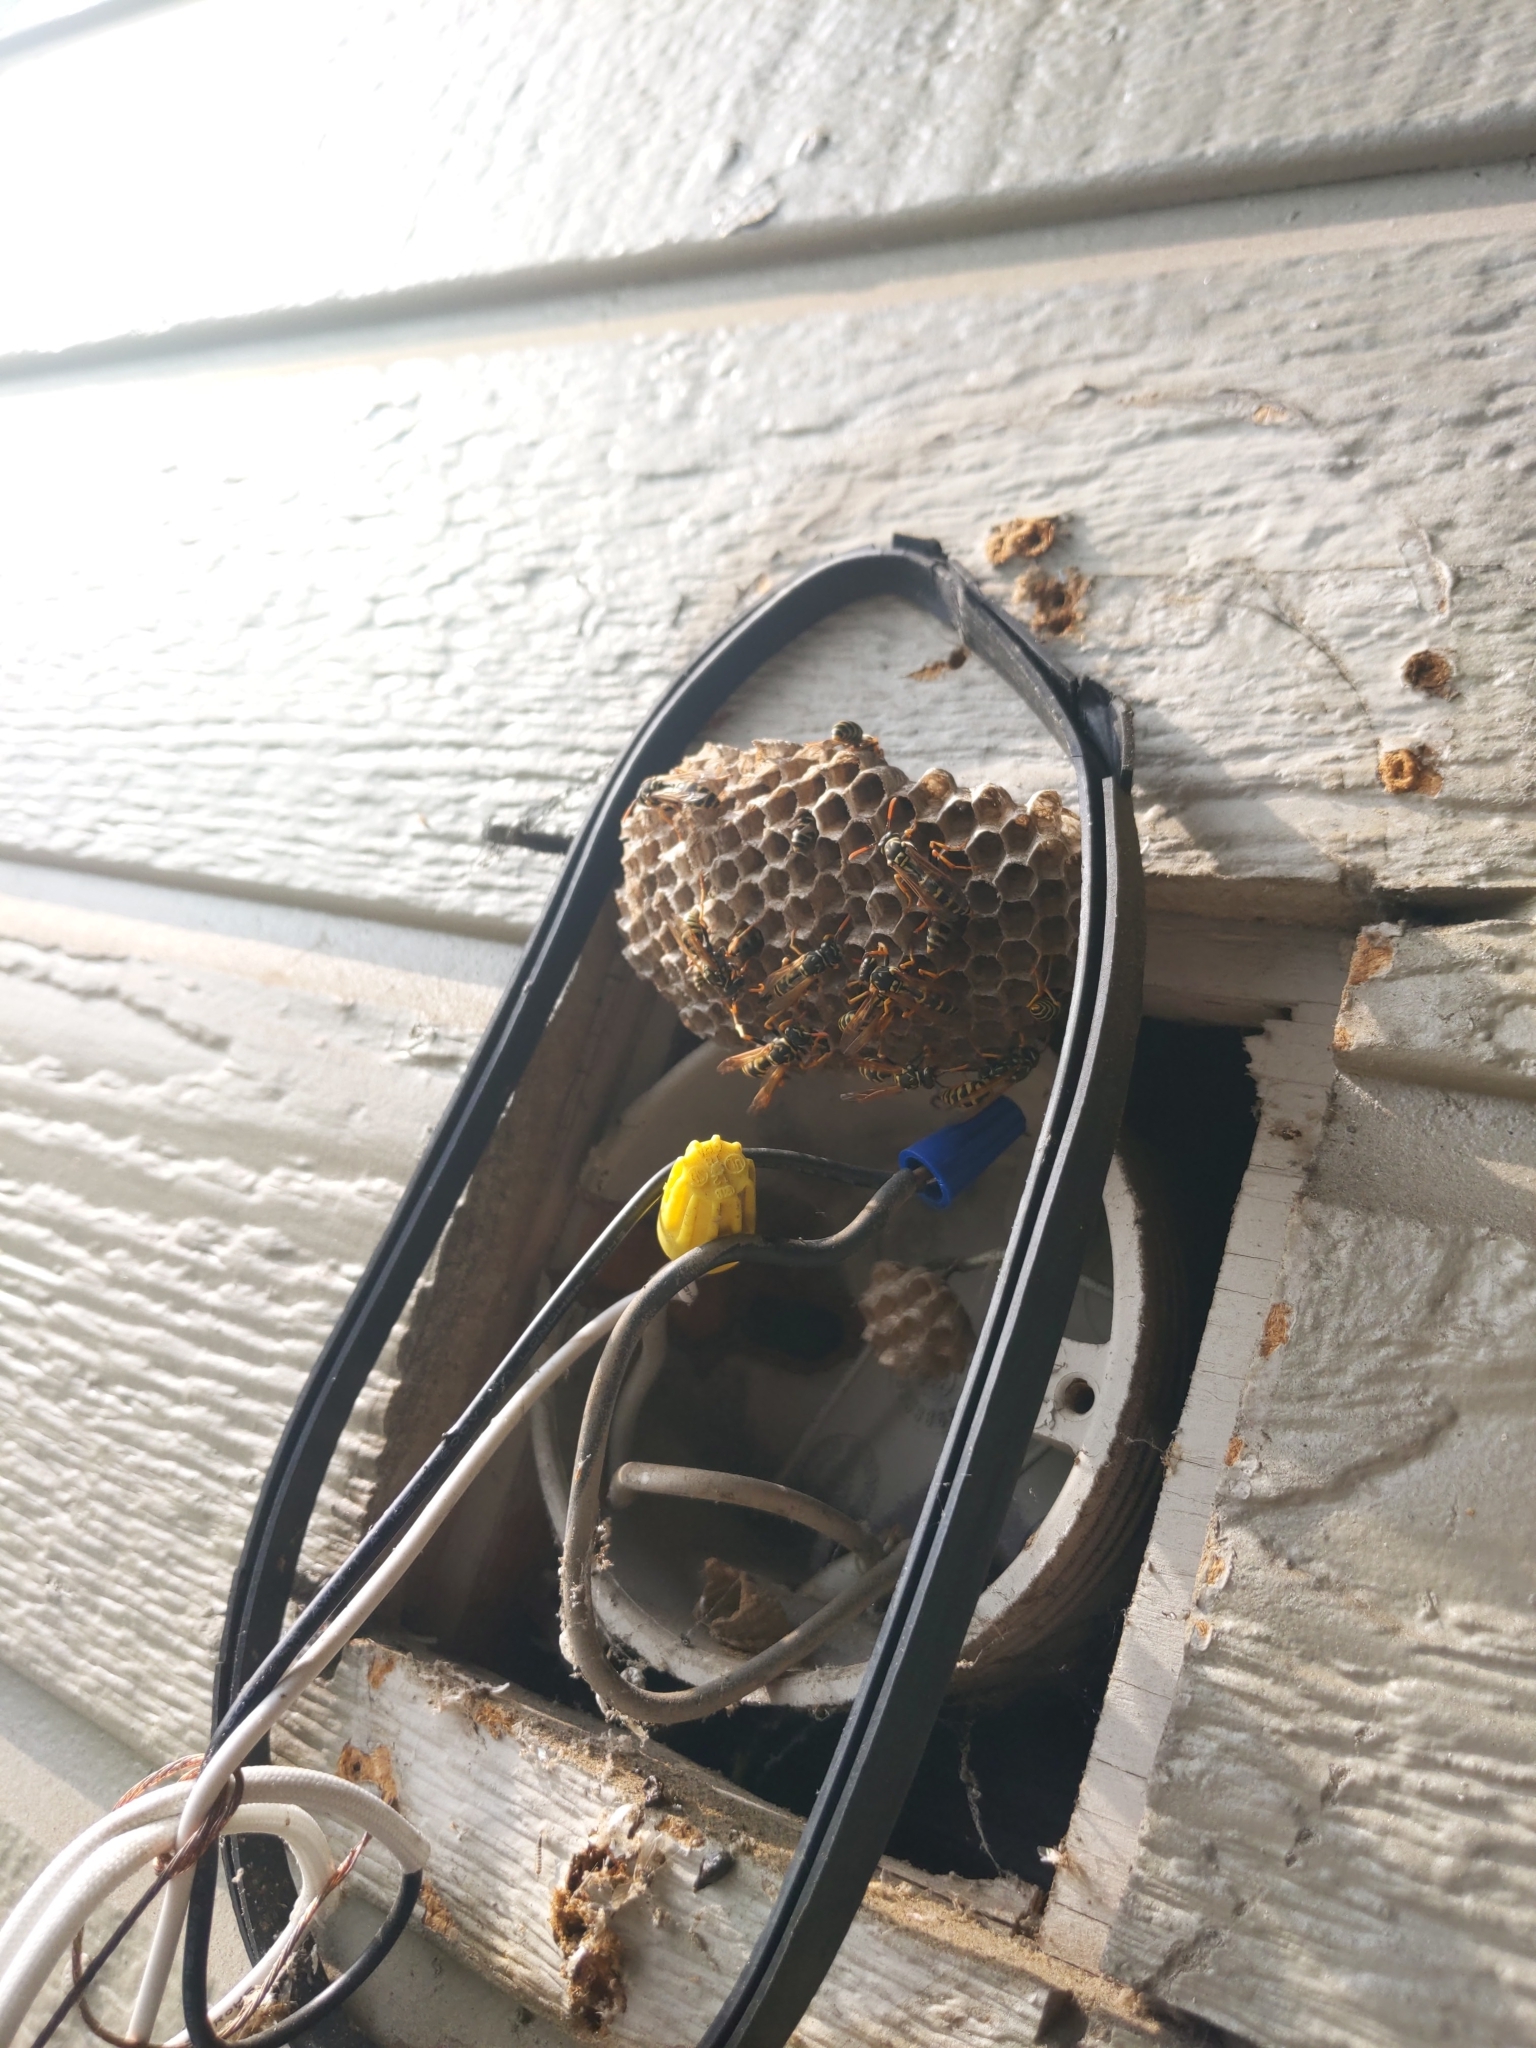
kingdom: Animalia
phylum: Arthropoda
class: Insecta
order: Hymenoptera
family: Eumenidae
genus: Polistes
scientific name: Polistes dominula
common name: Paper wasp
